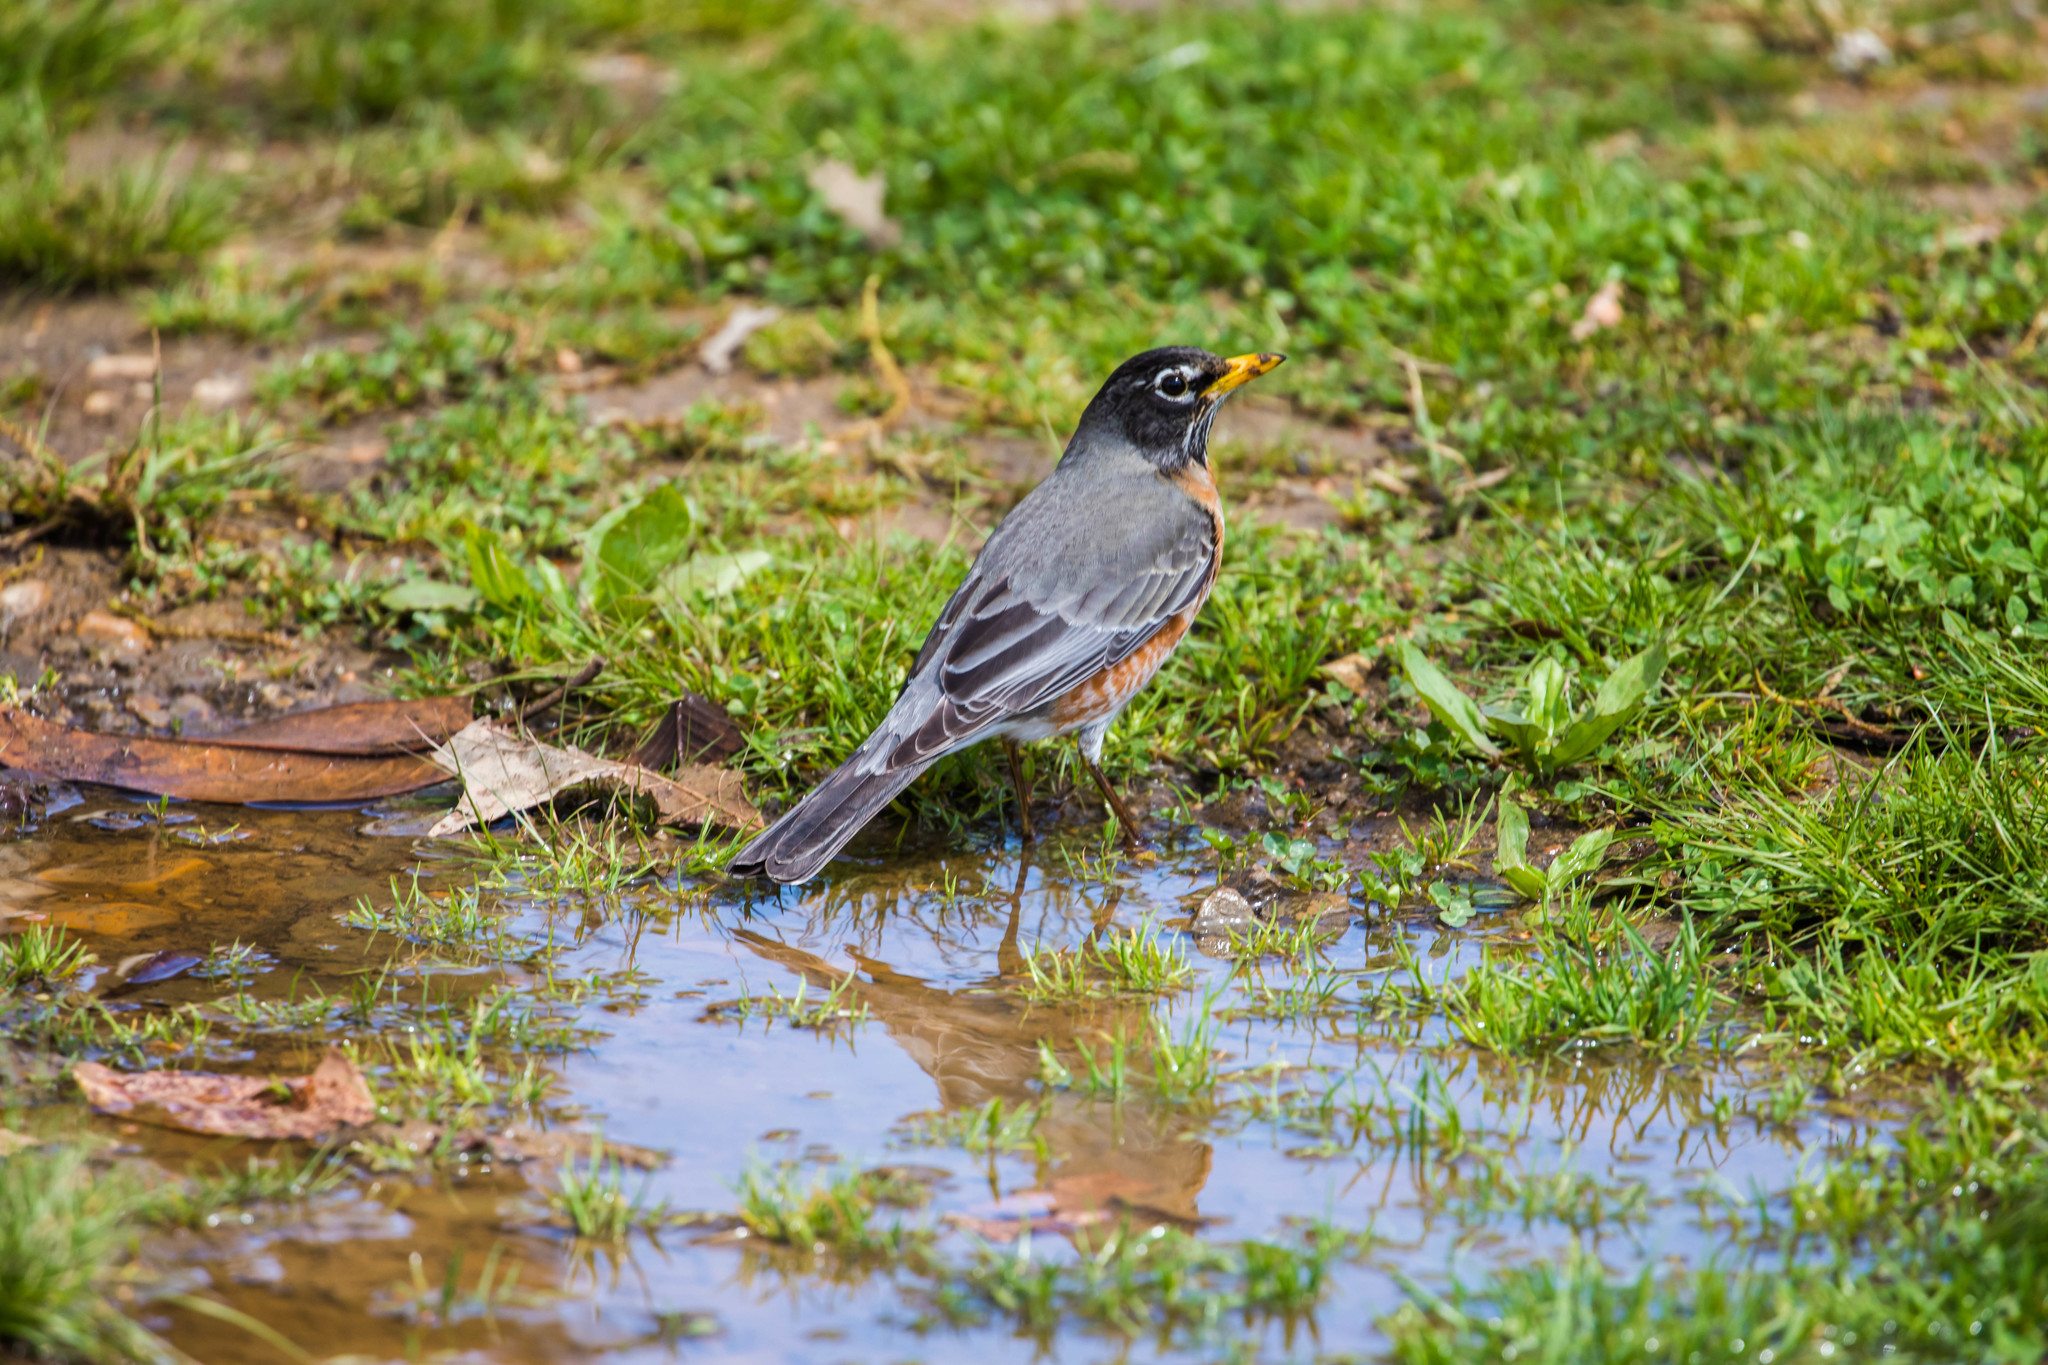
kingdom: Animalia
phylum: Chordata
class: Aves
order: Passeriformes
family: Turdidae
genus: Turdus
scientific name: Turdus migratorius
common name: American robin
